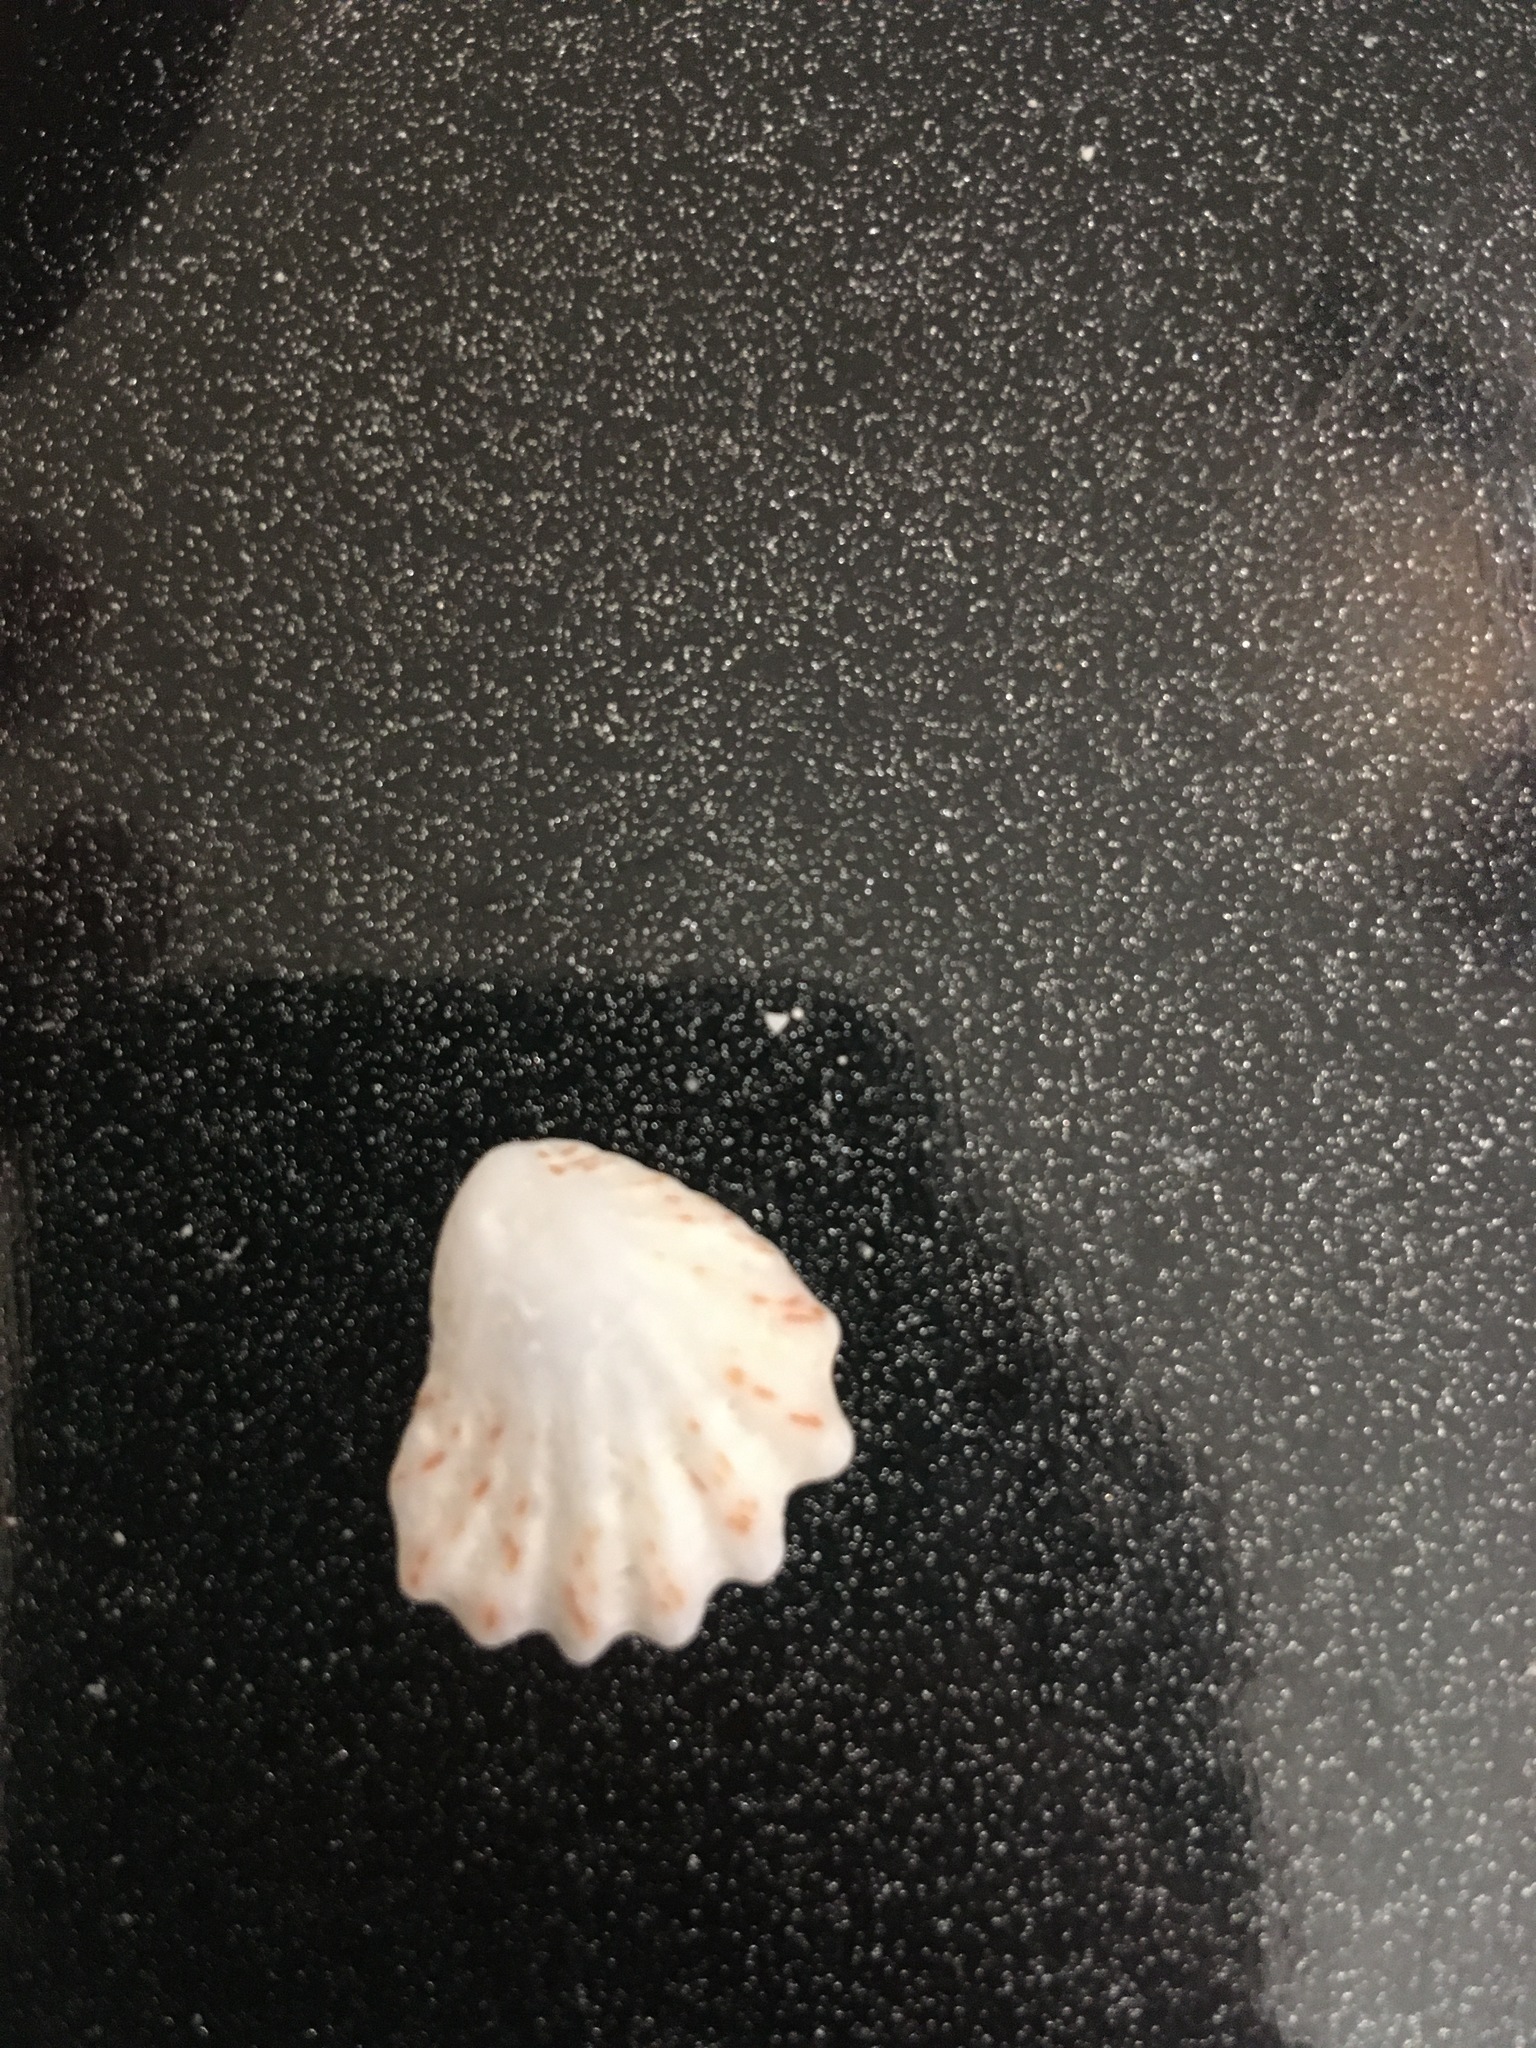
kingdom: Animalia
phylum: Mollusca
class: Bivalvia
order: Pectinida
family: Plicatulidae
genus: Plicatula
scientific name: Plicatula gibbosa
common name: Atlantic kitten's paw
